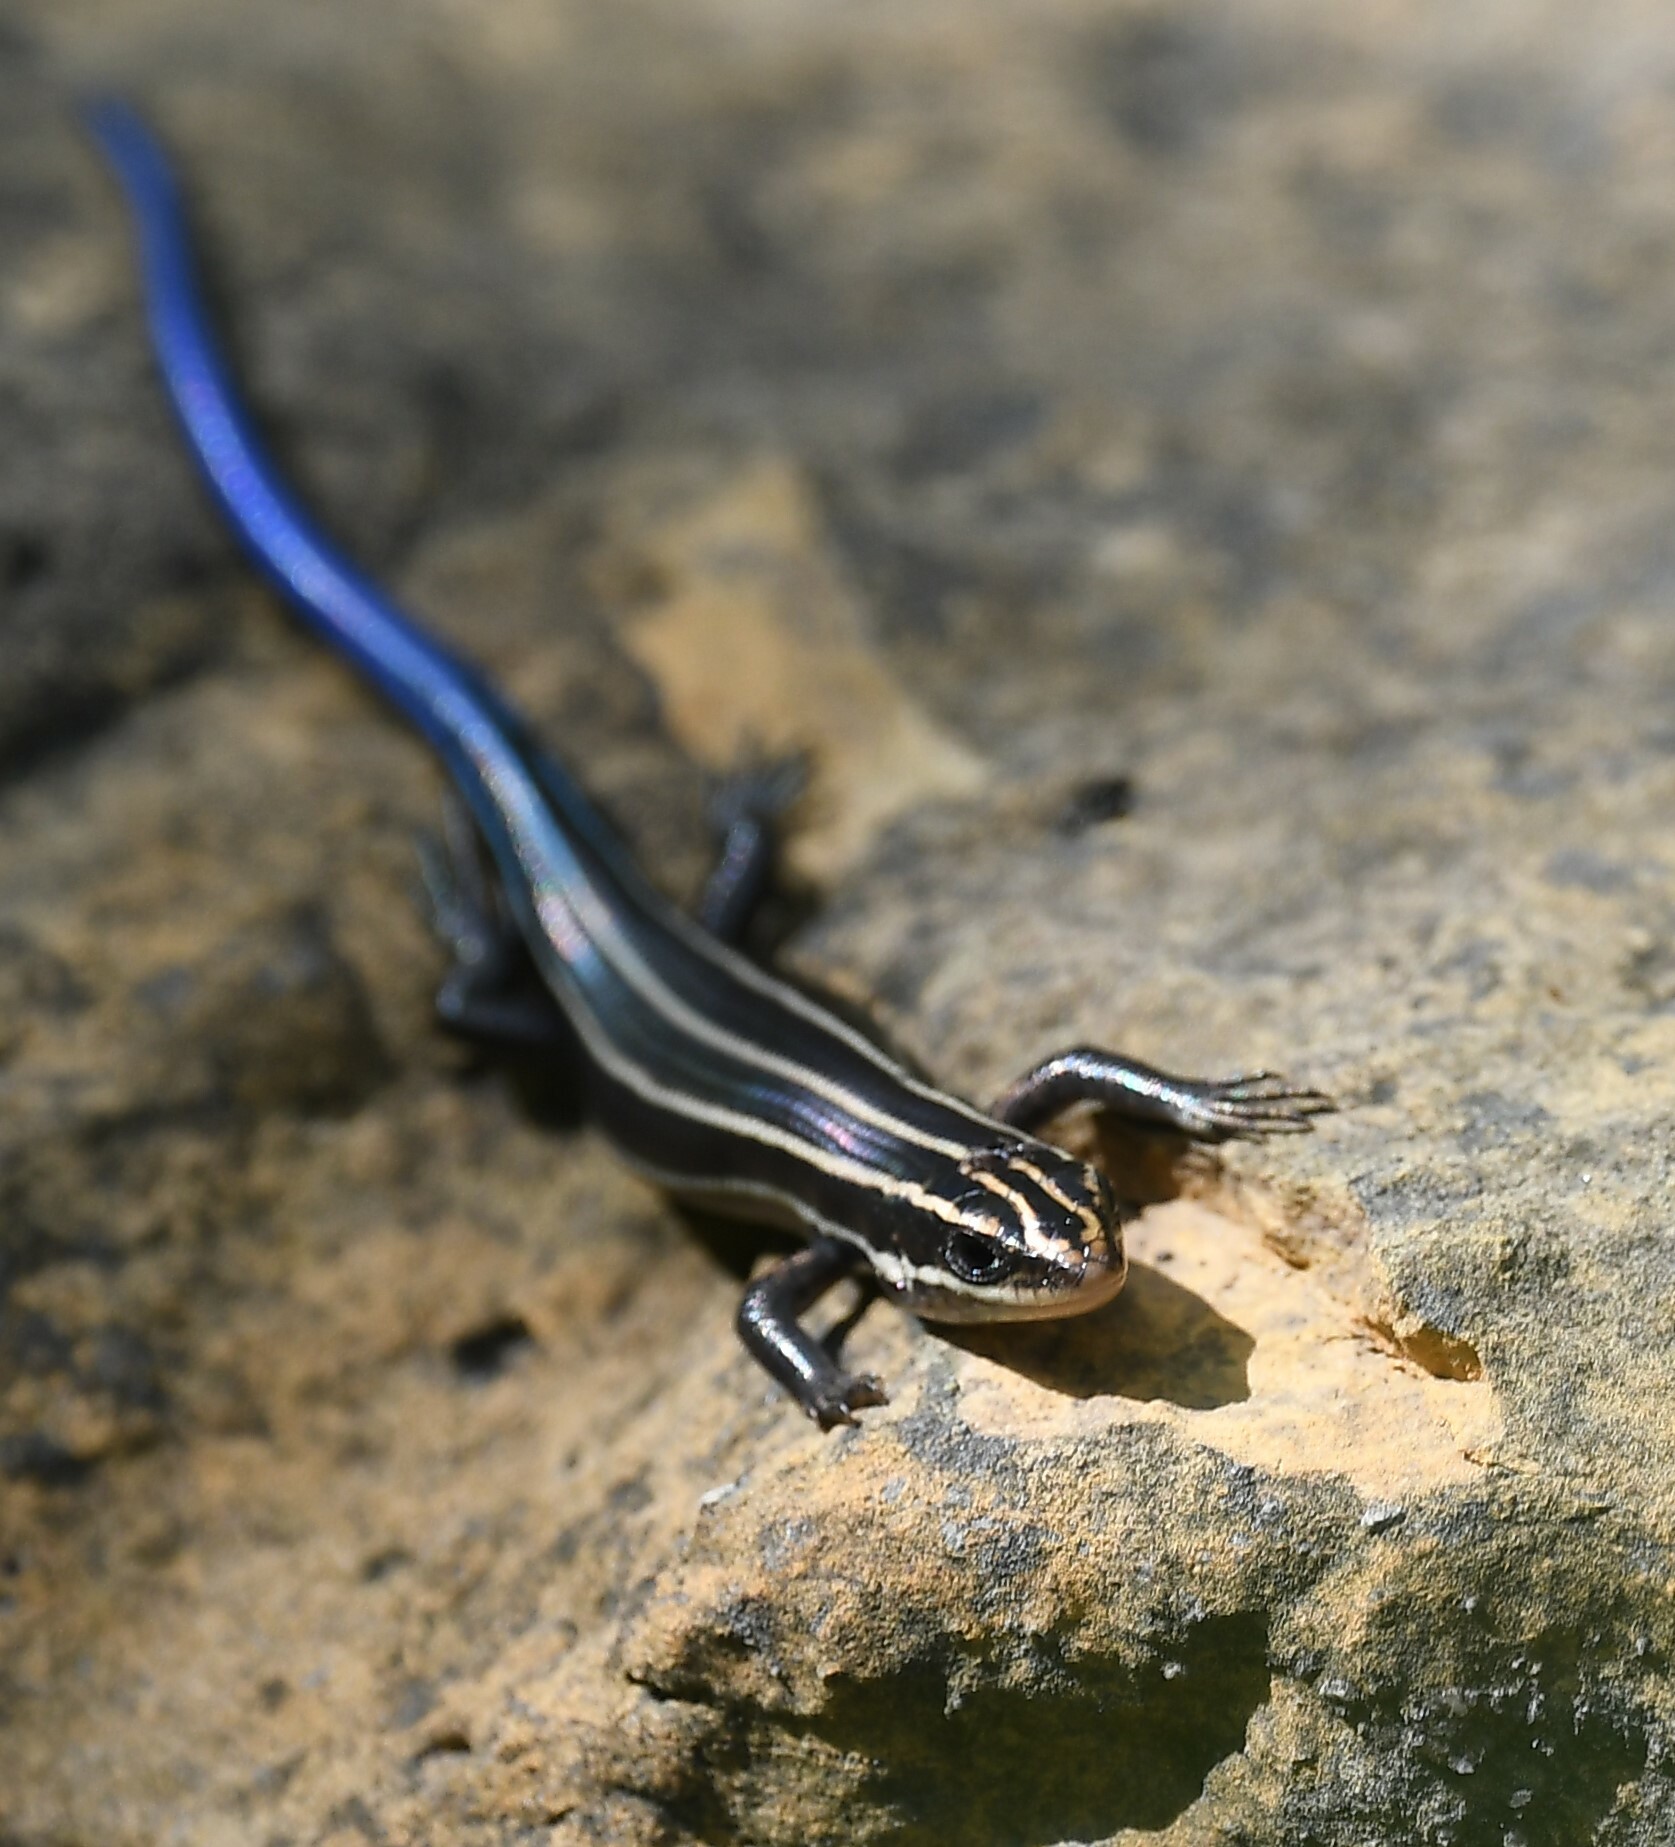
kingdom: Animalia
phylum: Chordata
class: Squamata
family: Scincidae
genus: Plestiodon
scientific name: Plestiodon fasciatus
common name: Five-lined skink
